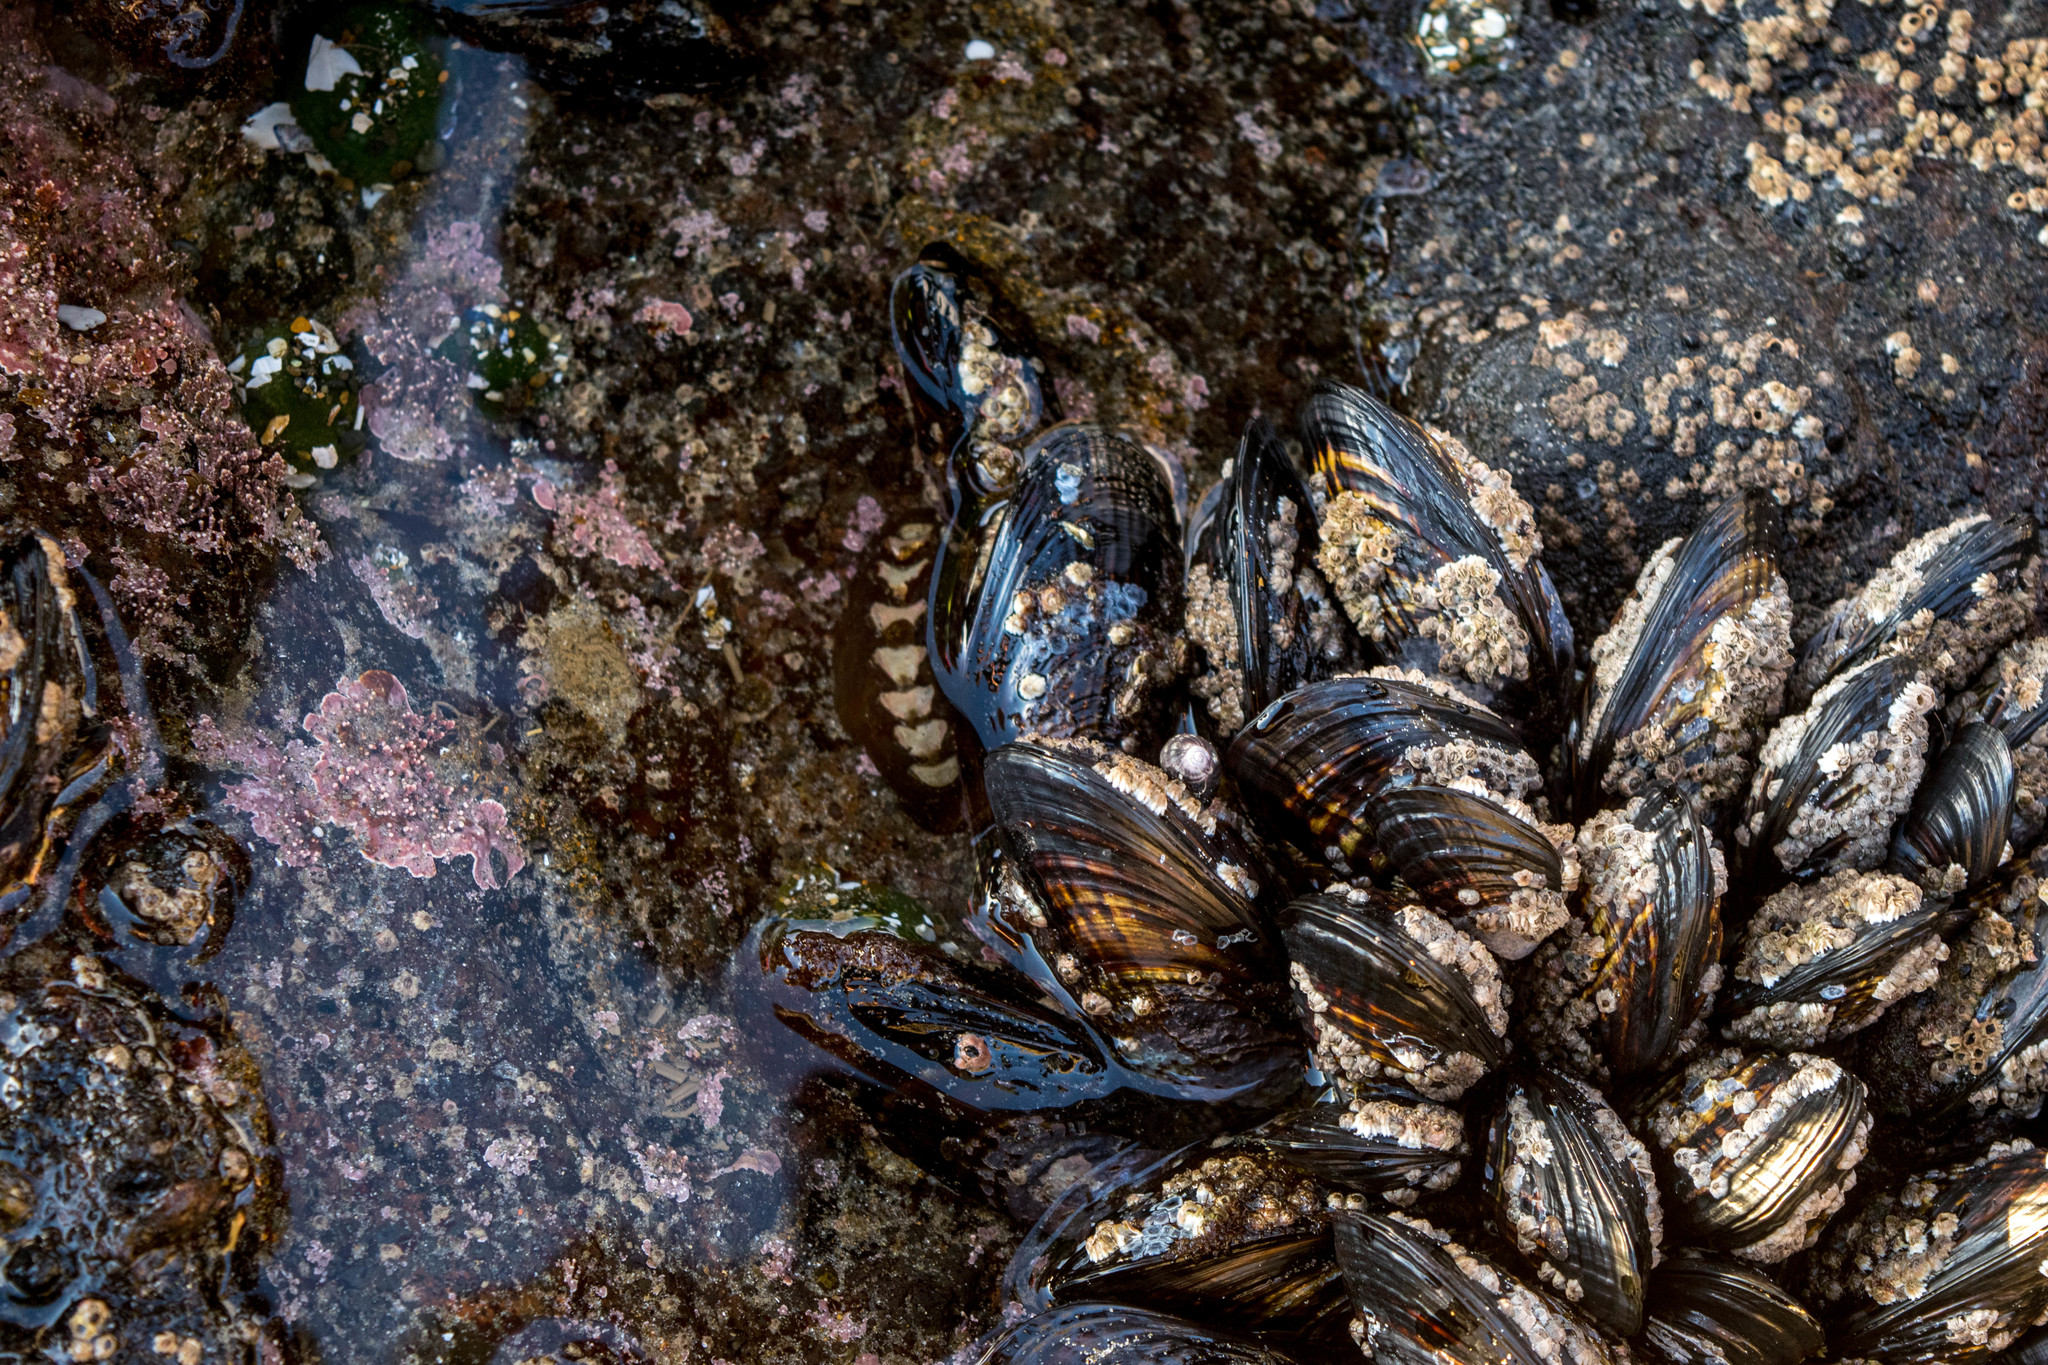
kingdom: Animalia
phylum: Mollusca
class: Polyplacophora
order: Chitonida
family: Mopaliidae
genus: Katharina
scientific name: Katharina tunicata
